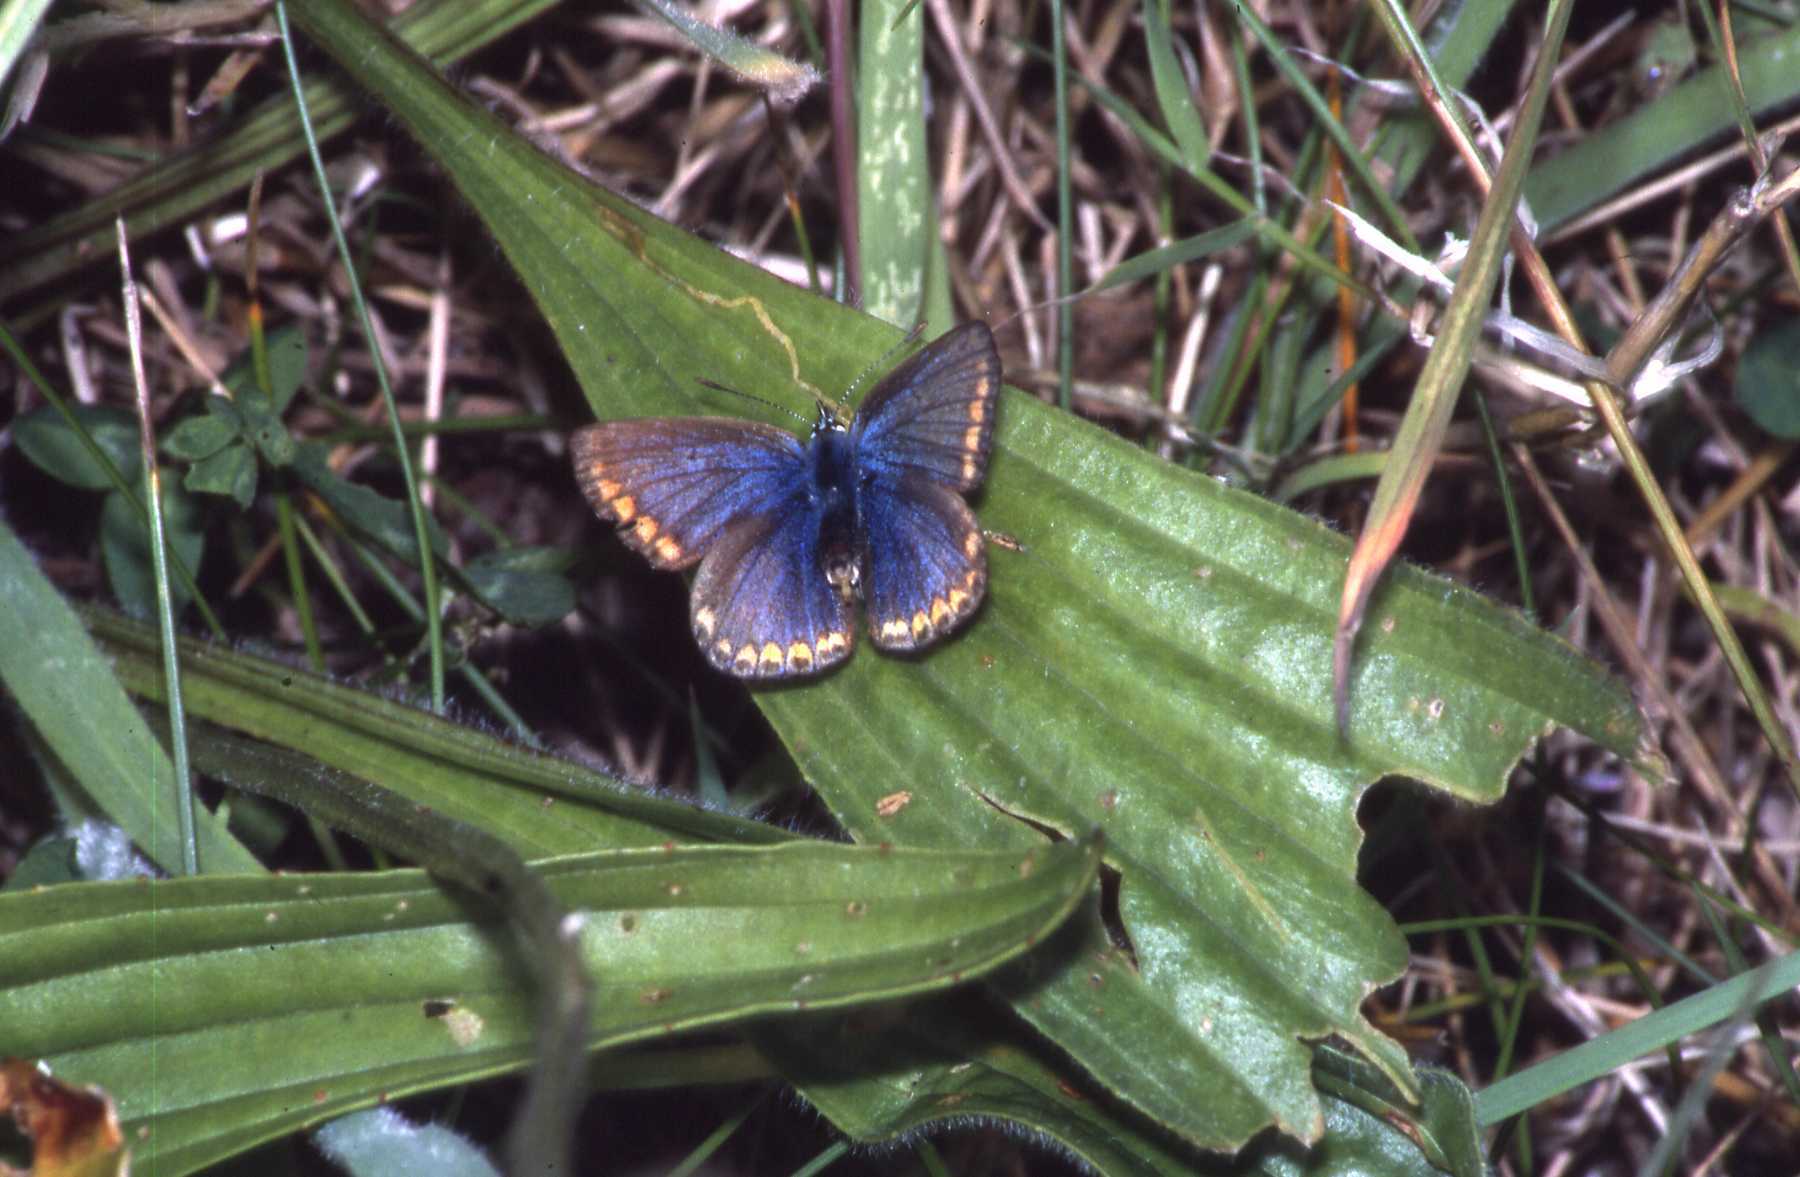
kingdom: Animalia
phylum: Arthropoda
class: Insecta
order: Lepidoptera
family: Lycaenidae
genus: Polyommatus
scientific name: Polyommatus icarus
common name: Common blue
